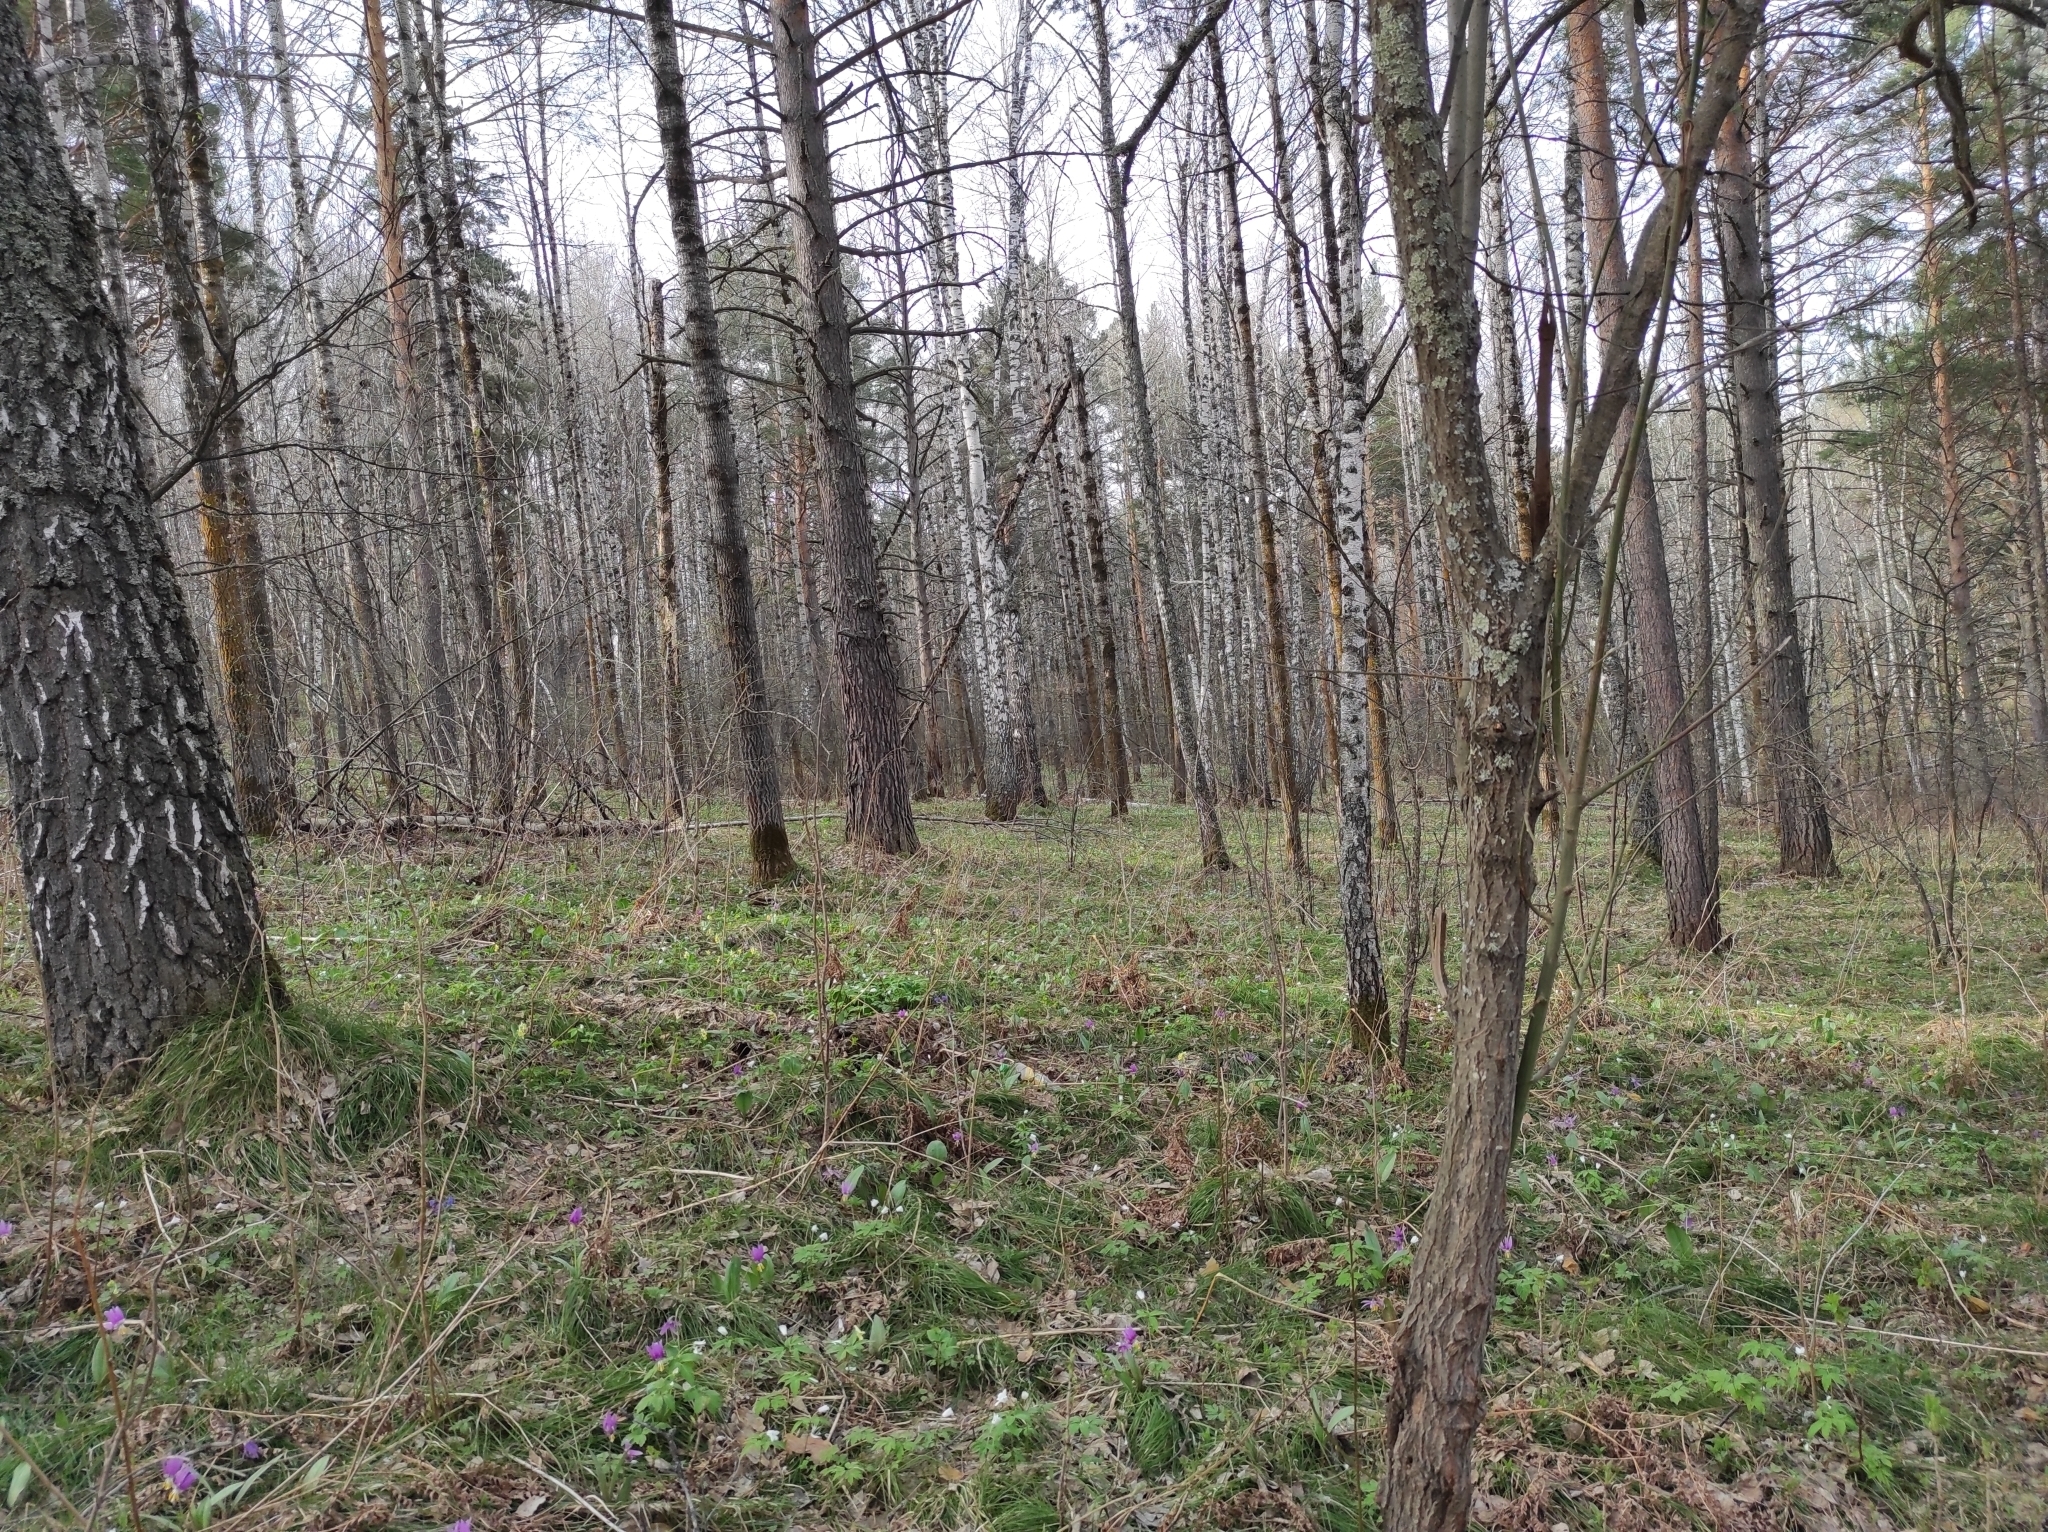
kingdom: Plantae
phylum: Tracheophyta
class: Pinopsida
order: Pinales
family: Pinaceae
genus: Pinus
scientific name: Pinus sylvestris
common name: Scots pine
